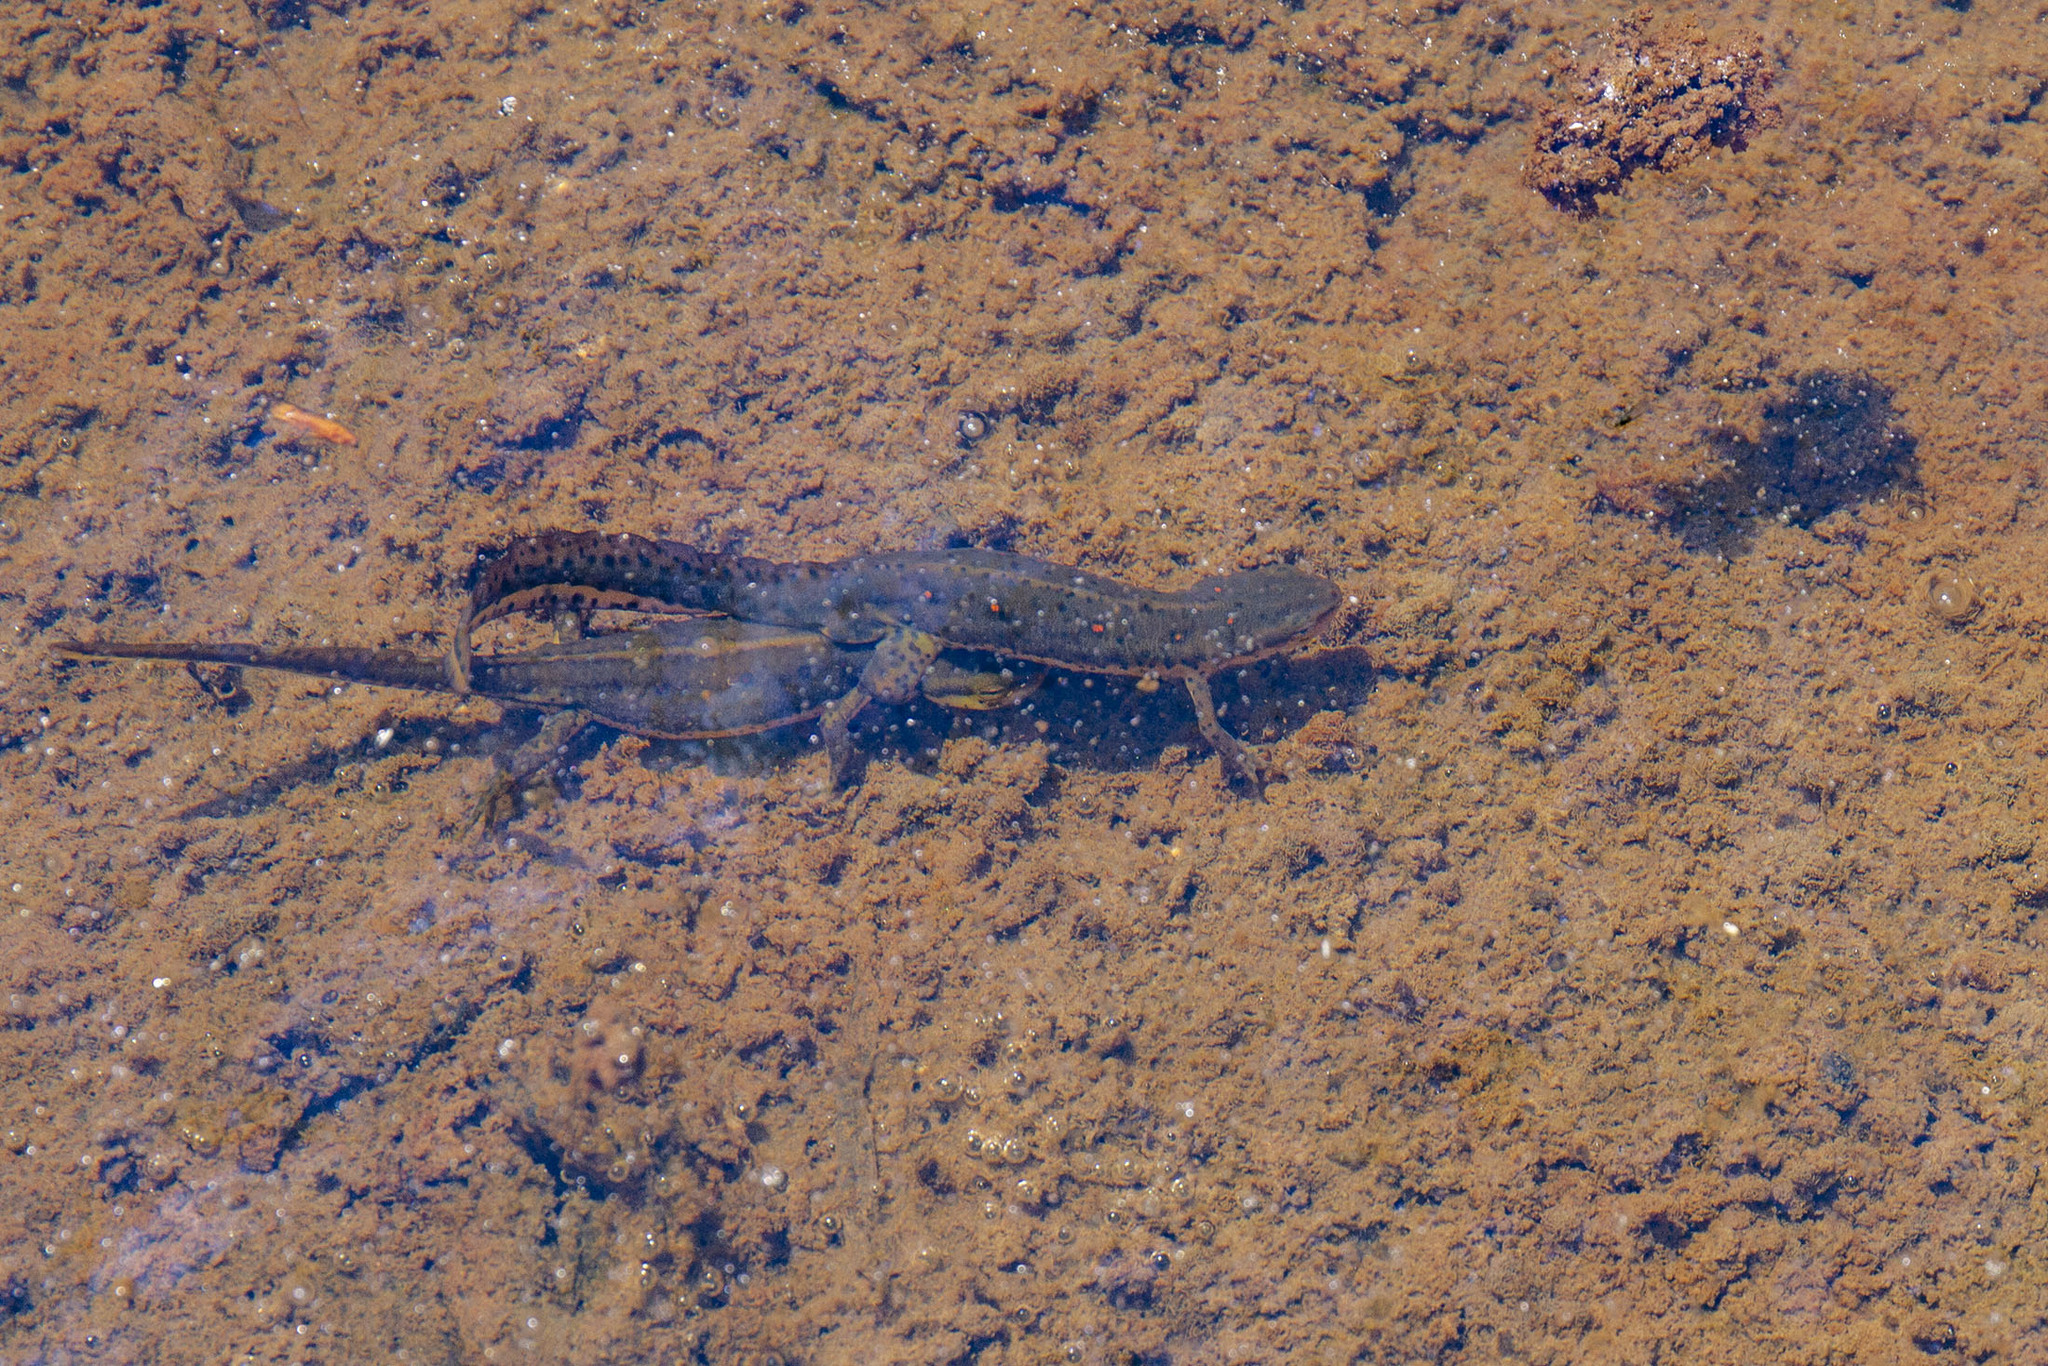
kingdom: Animalia
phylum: Chordata
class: Amphibia
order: Caudata
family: Salamandridae
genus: Notophthalmus
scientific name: Notophthalmus viridescens
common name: Eastern newt
